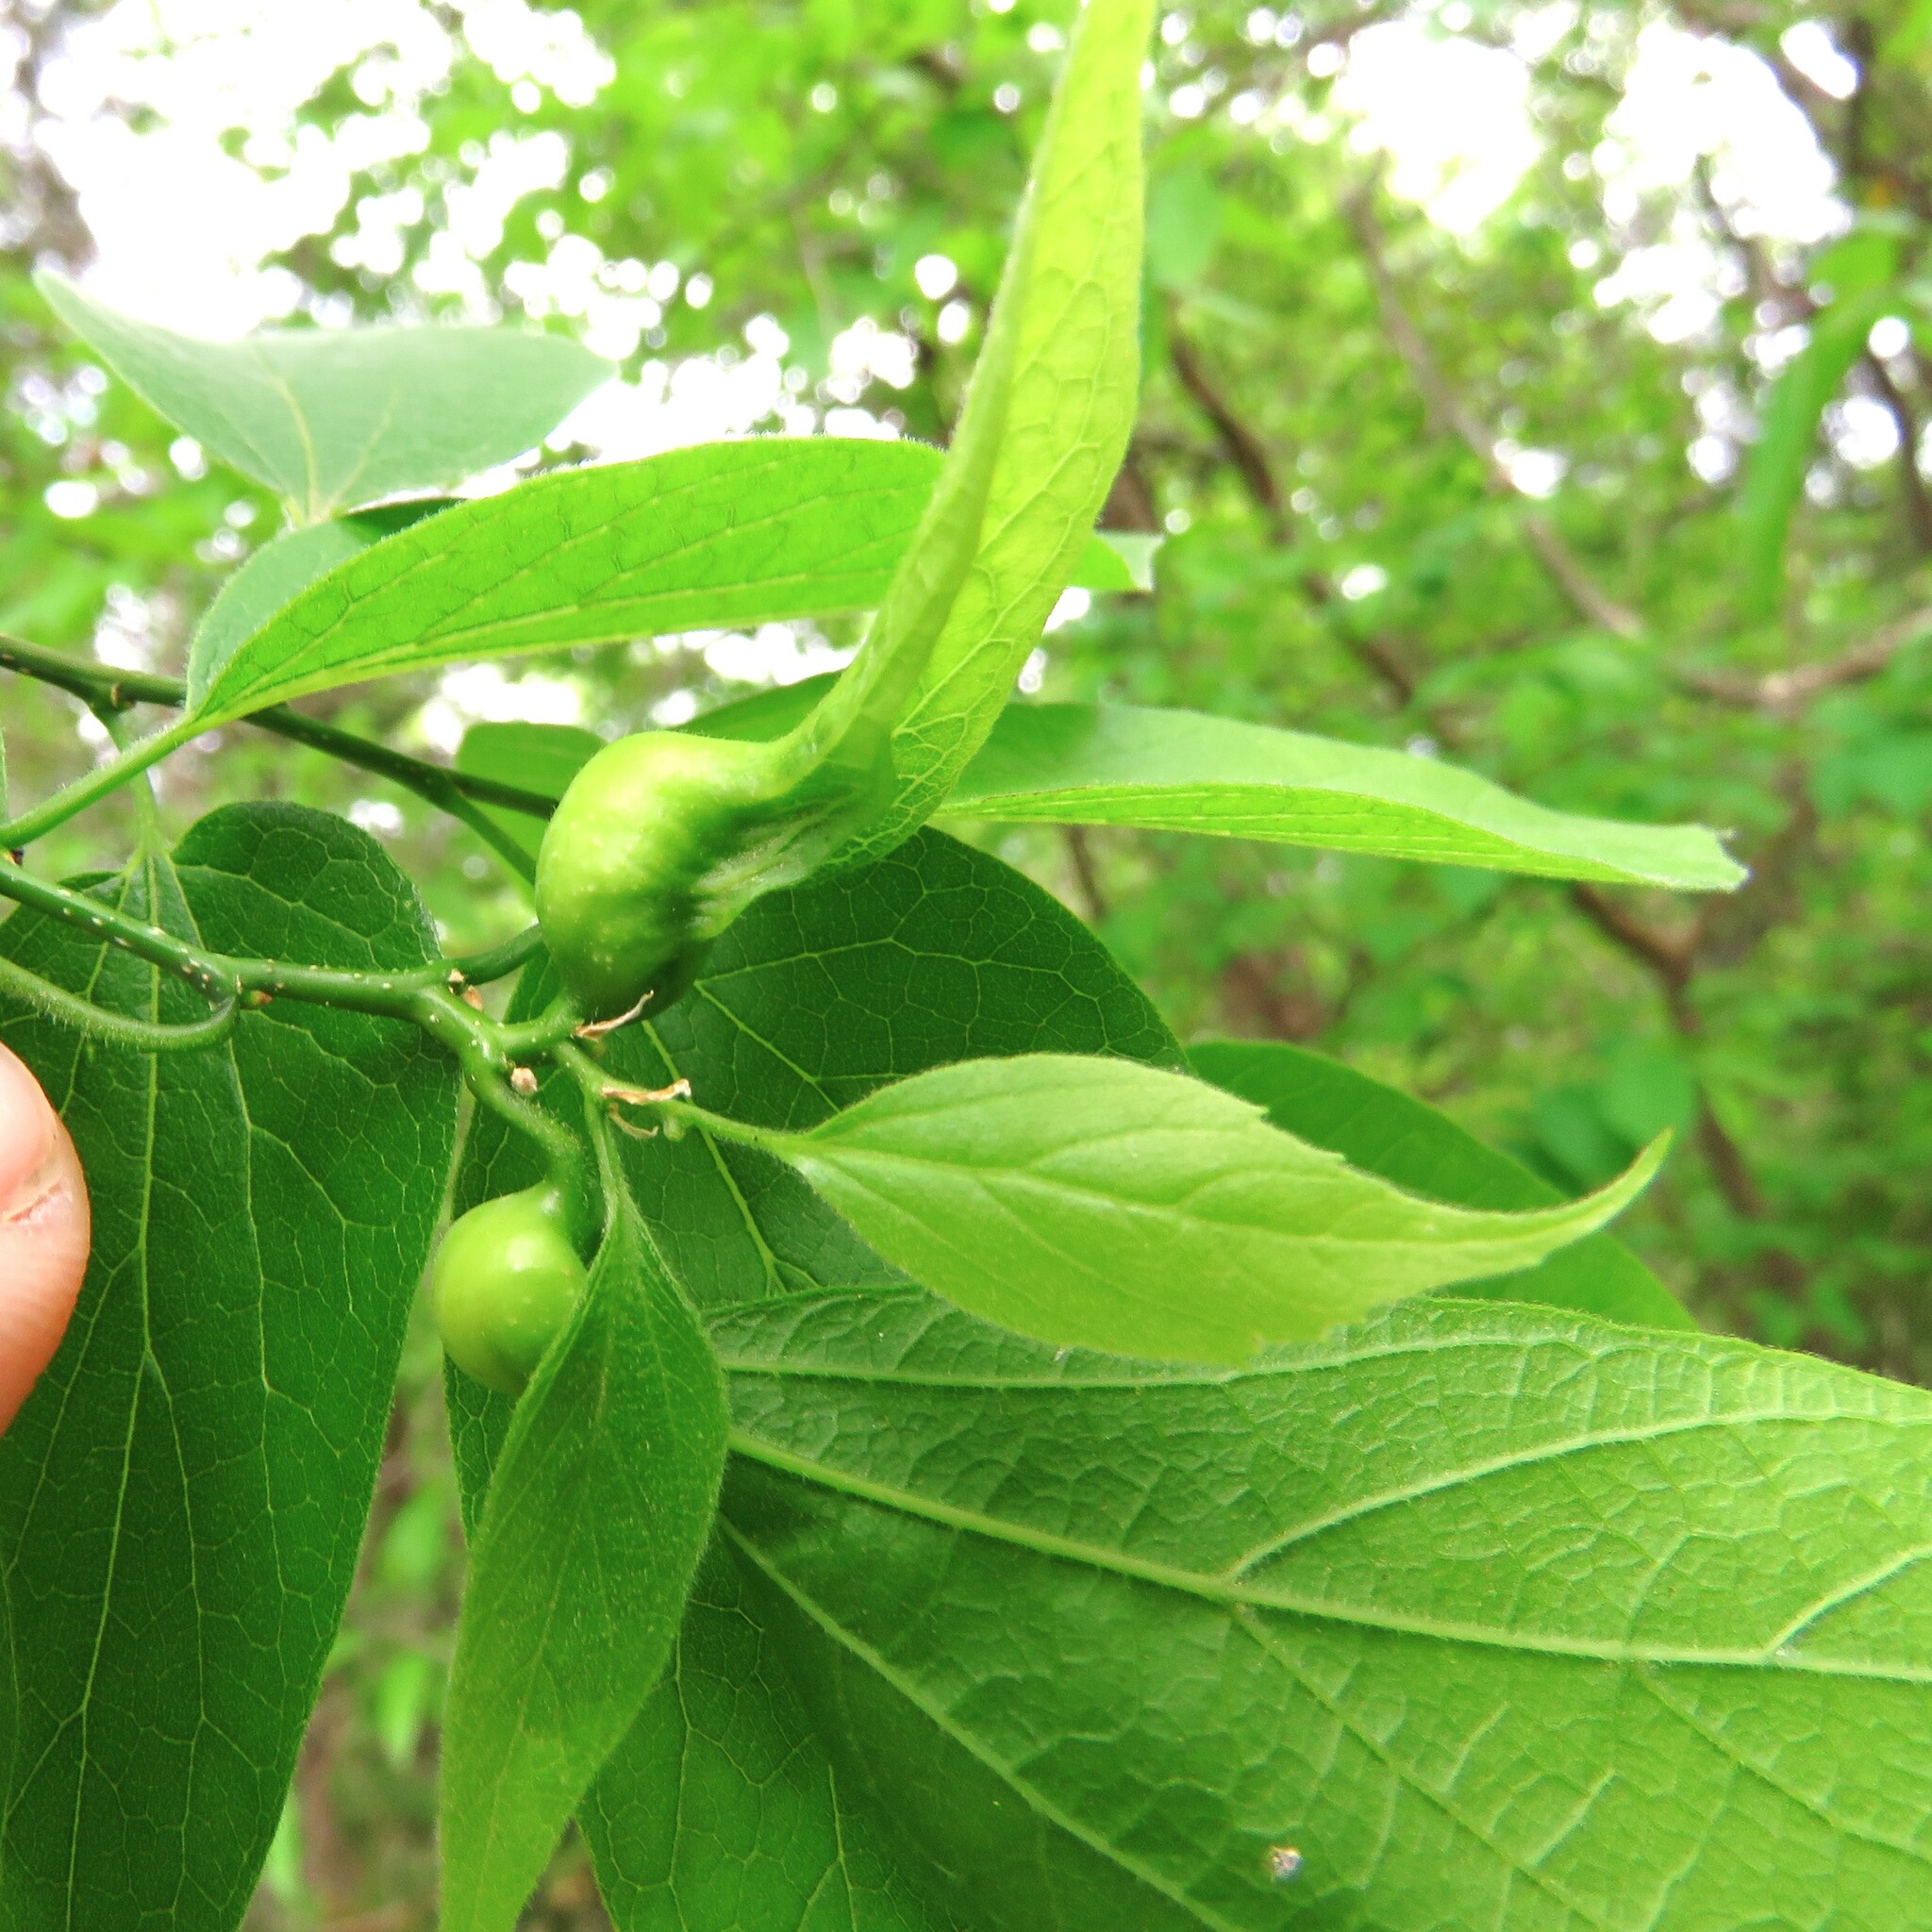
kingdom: Animalia
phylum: Arthropoda
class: Insecta
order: Hemiptera
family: Aphalaridae
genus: Pachypsylla
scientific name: Pachypsylla venusta
